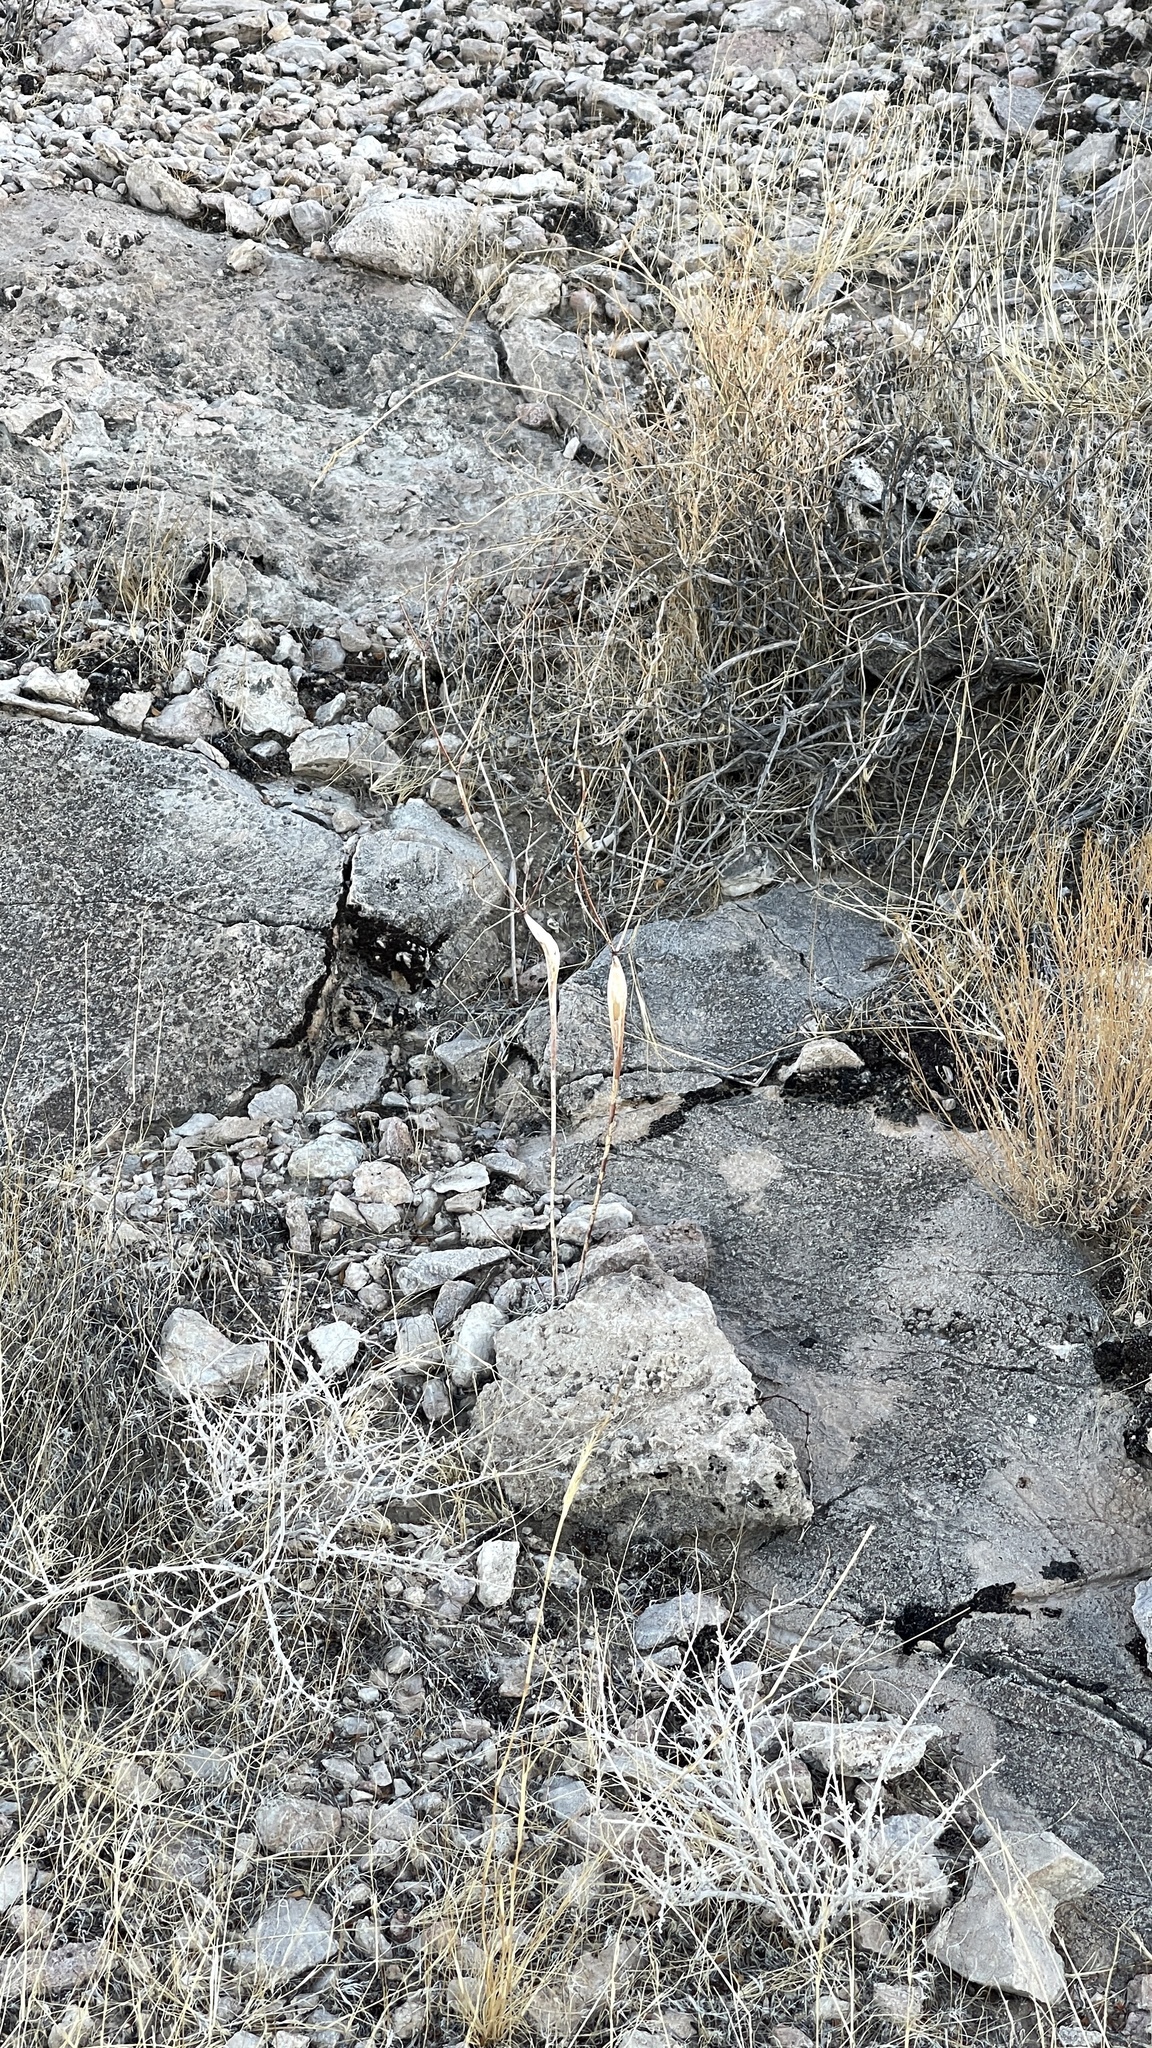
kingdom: Plantae
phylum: Tracheophyta
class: Magnoliopsida
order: Caryophyllales
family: Polygonaceae
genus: Eriogonum
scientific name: Eriogonum inflatum
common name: Desert trumpet
